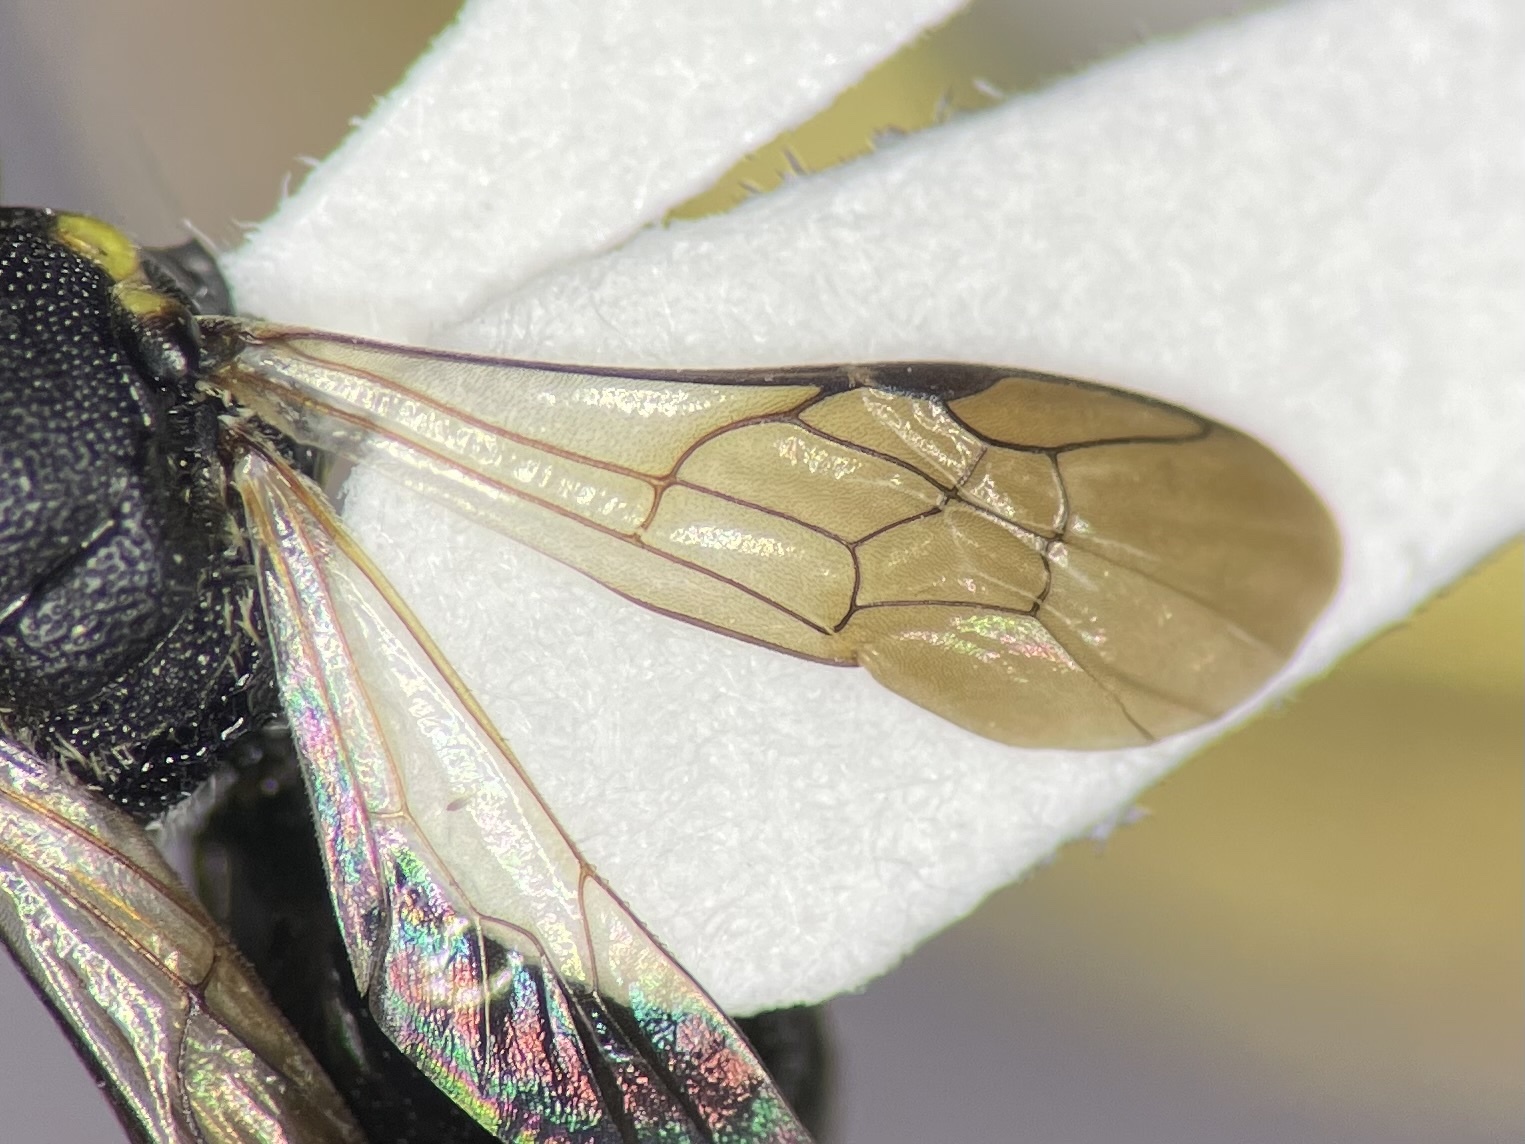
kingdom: Animalia
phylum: Arthropoda
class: Insecta
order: Hymenoptera
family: Colletidae
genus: Hylaeus
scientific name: Hylaeus confluens
